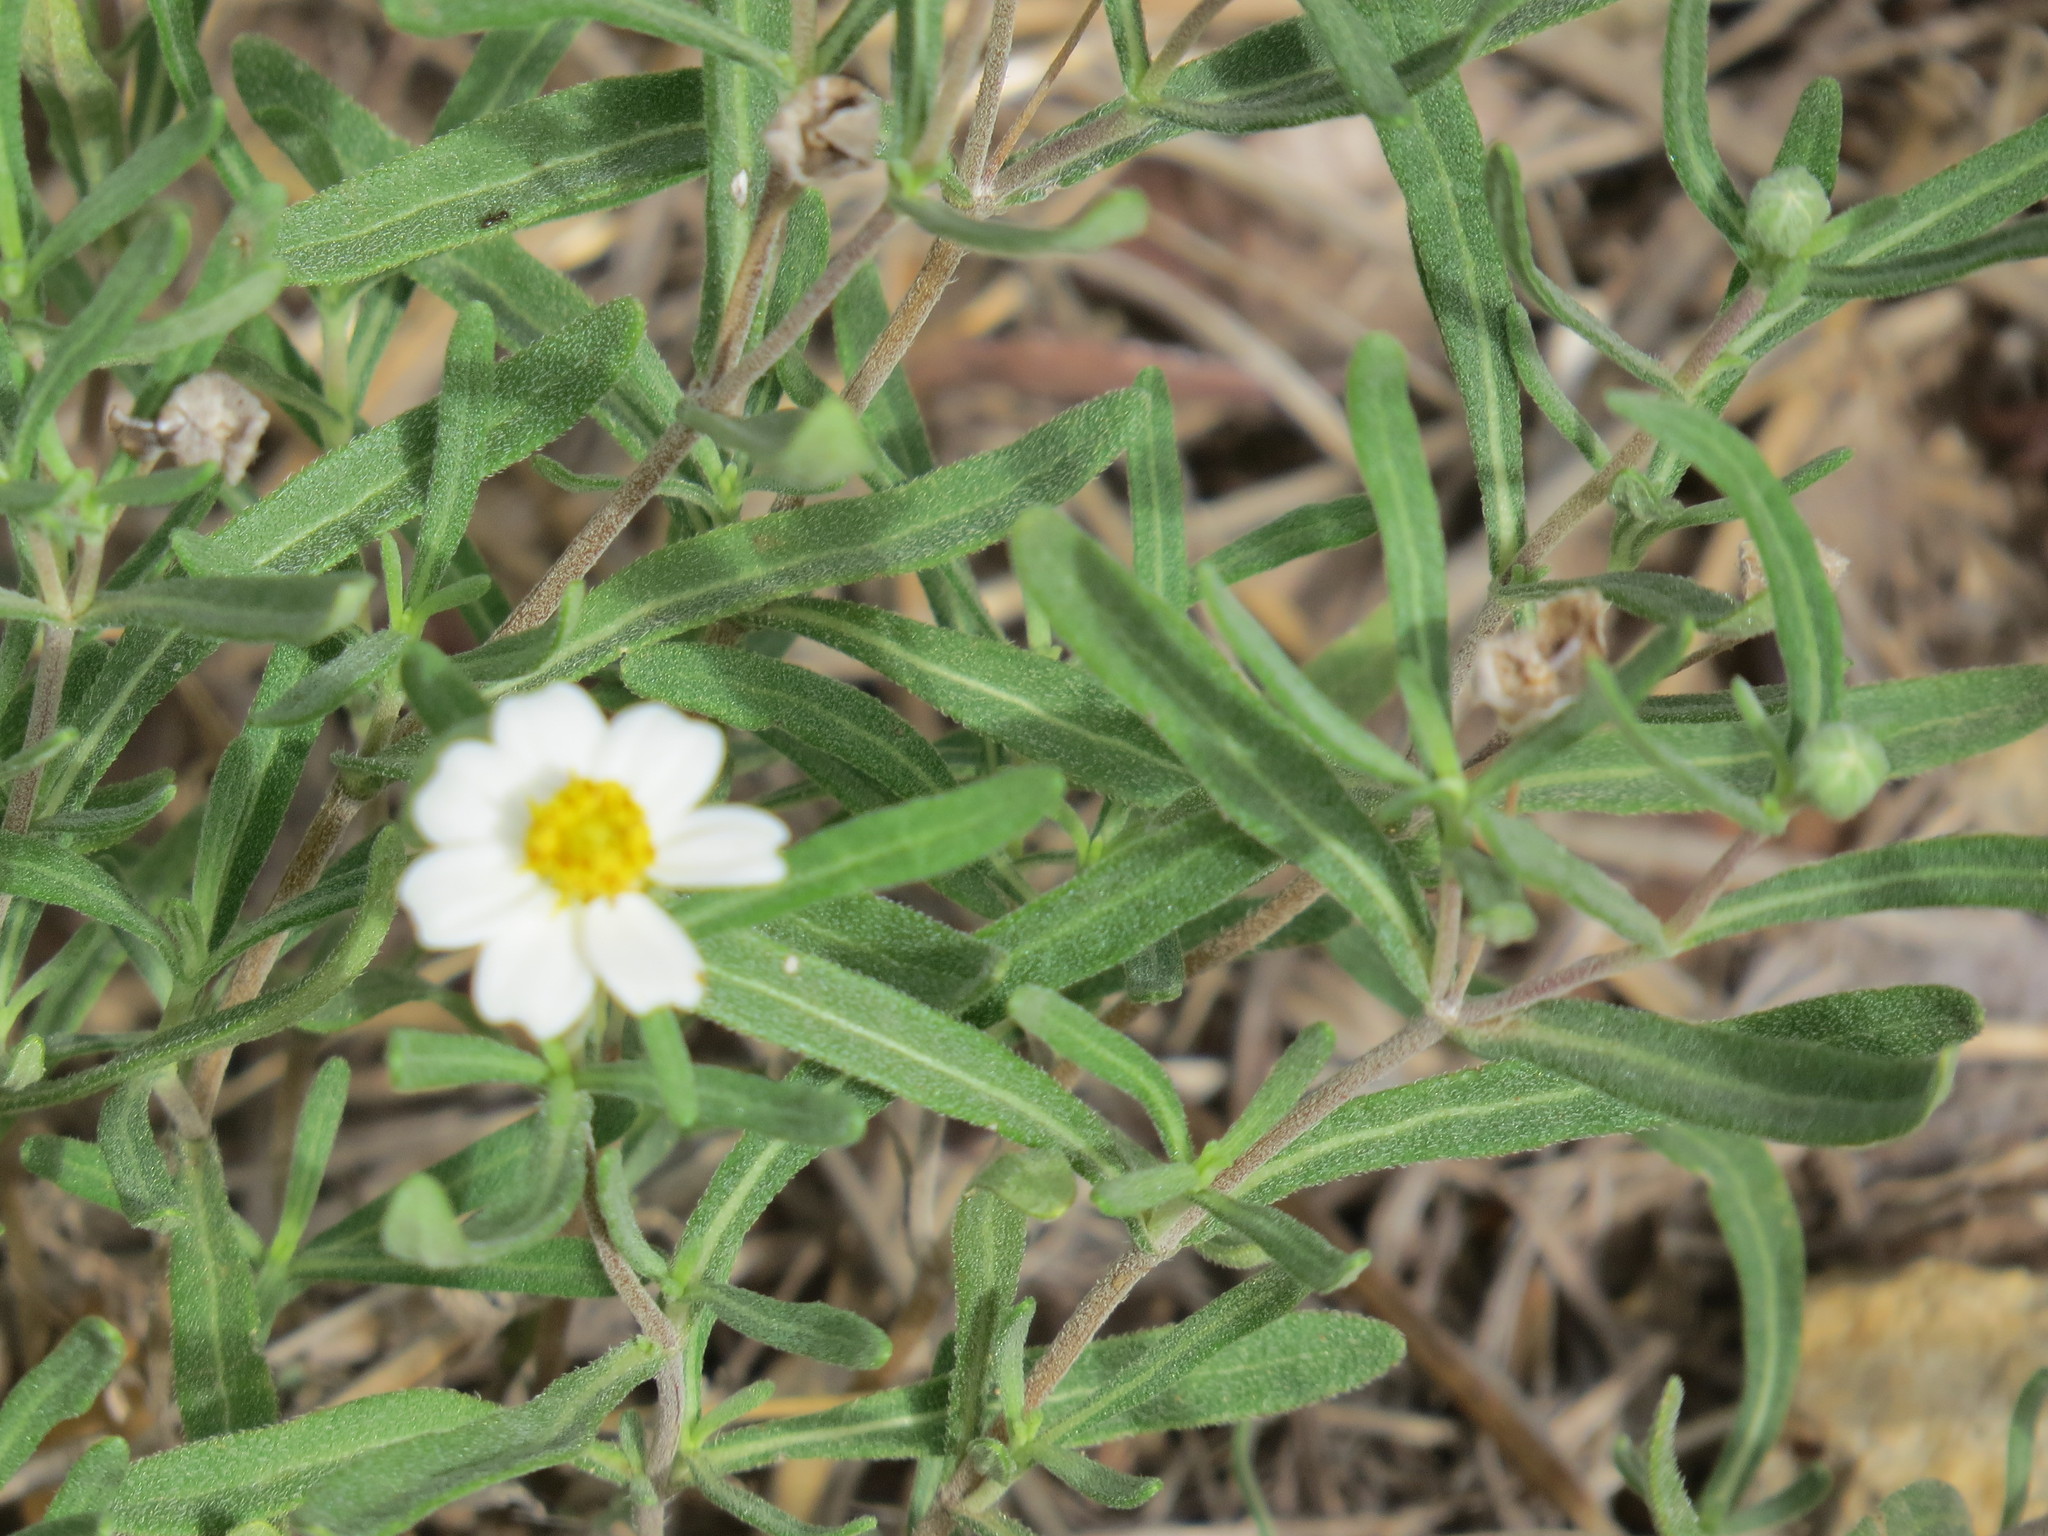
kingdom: Plantae
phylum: Tracheophyta
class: Magnoliopsida
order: Asterales
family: Asteraceae
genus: Melampodium
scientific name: Melampodium leucanthum
